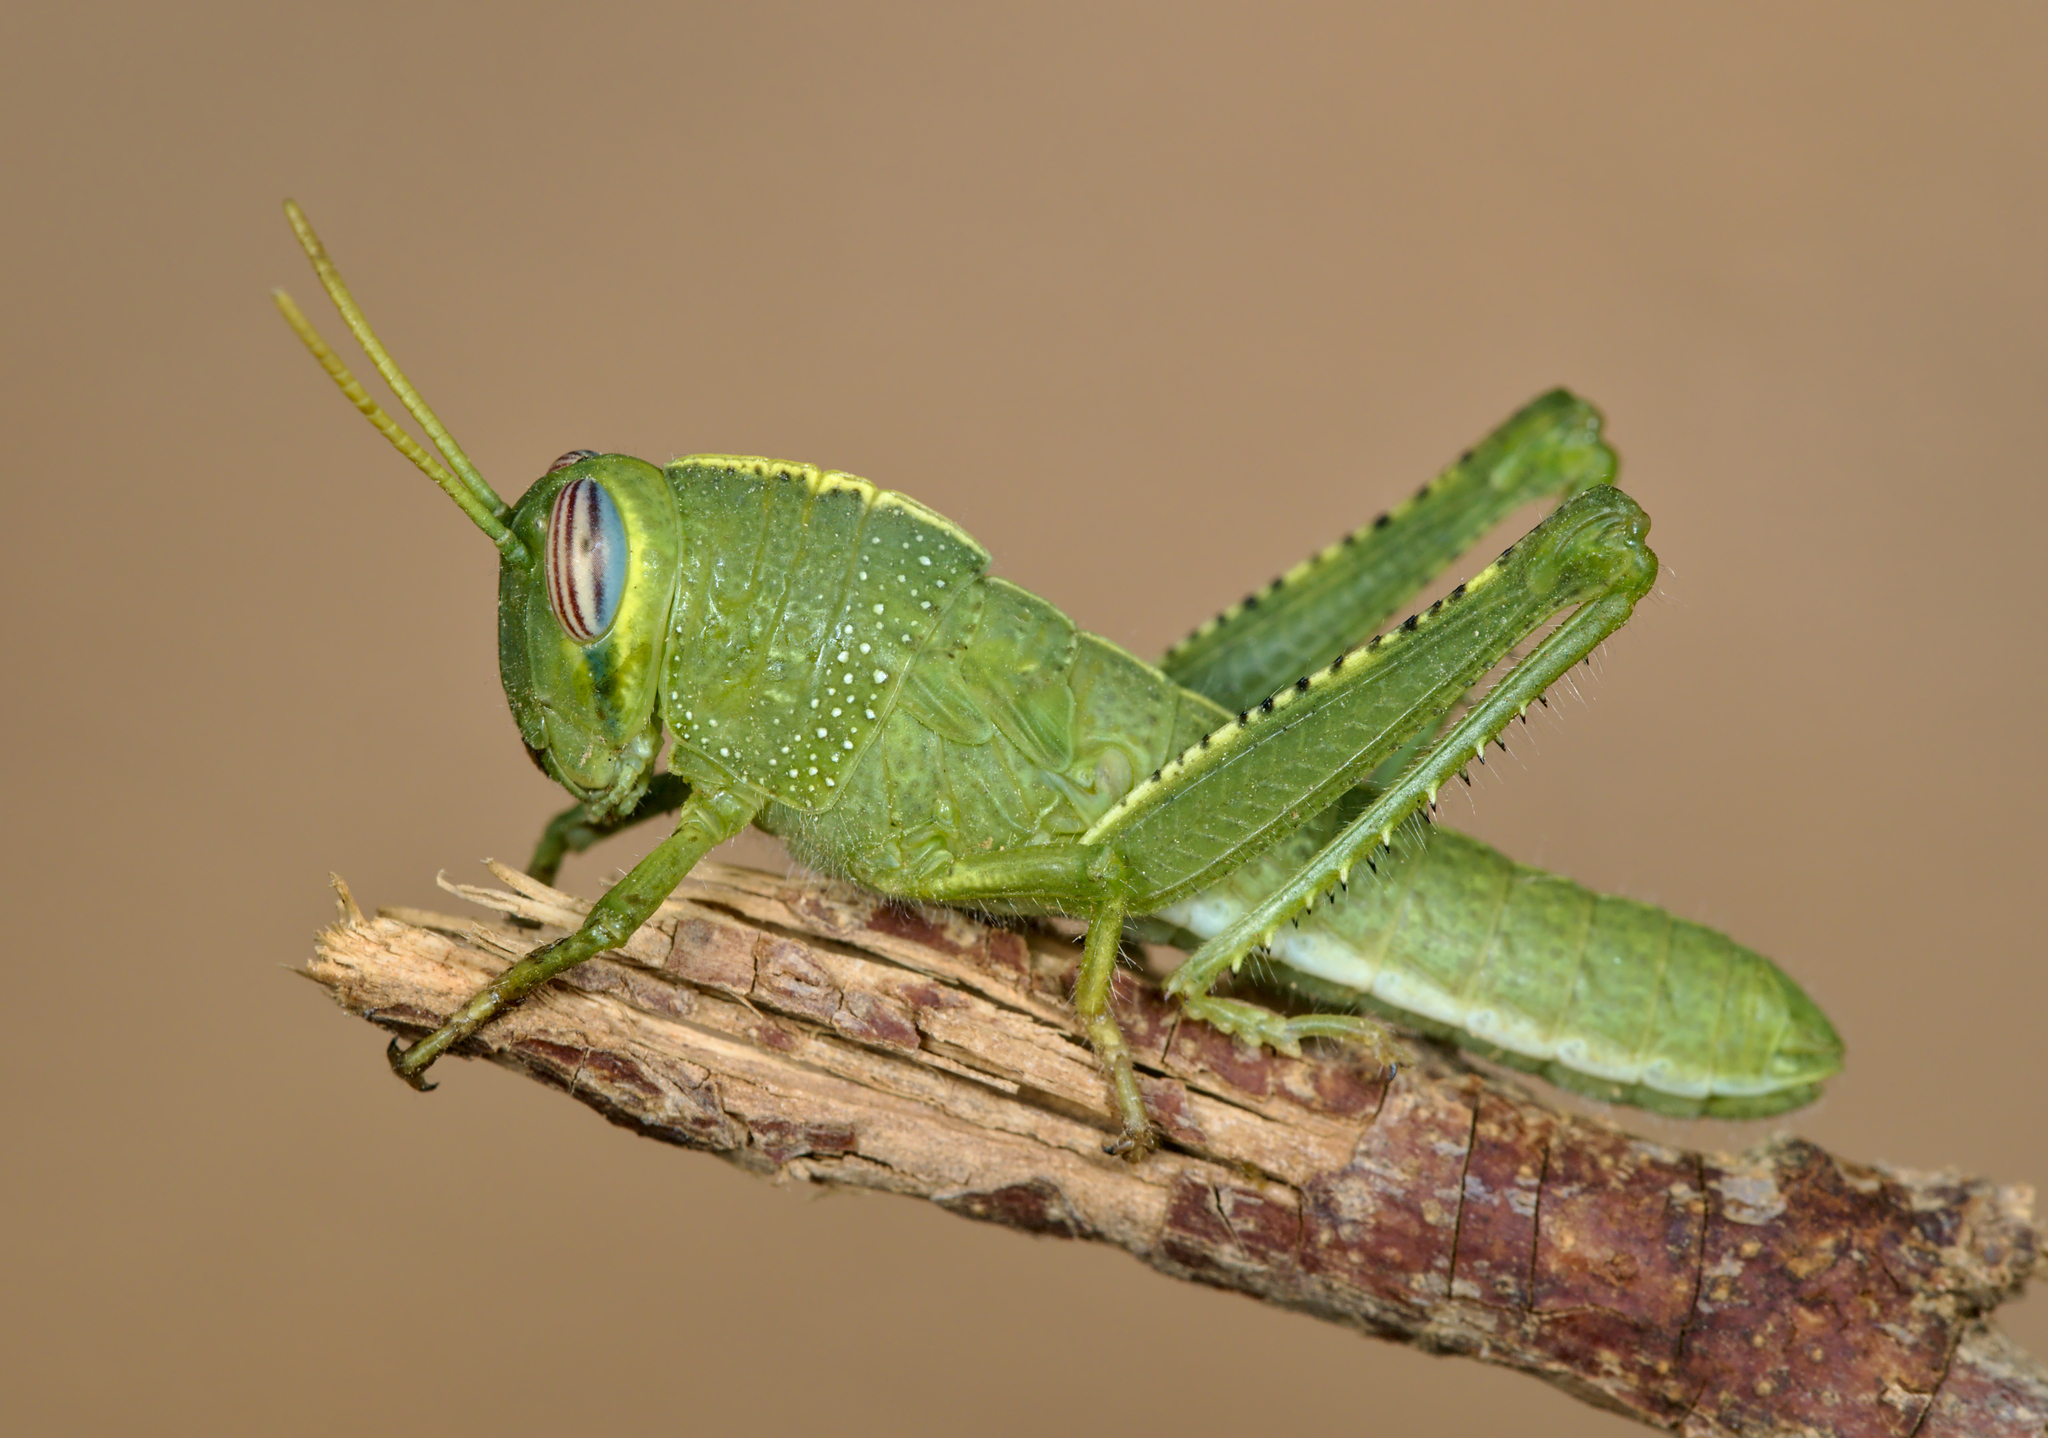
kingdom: Animalia
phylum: Arthropoda
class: Insecta
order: Orthoptera
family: Acrididae
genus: Anacridium
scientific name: Anacridium aegyptium
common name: Egyptian grasshopper
